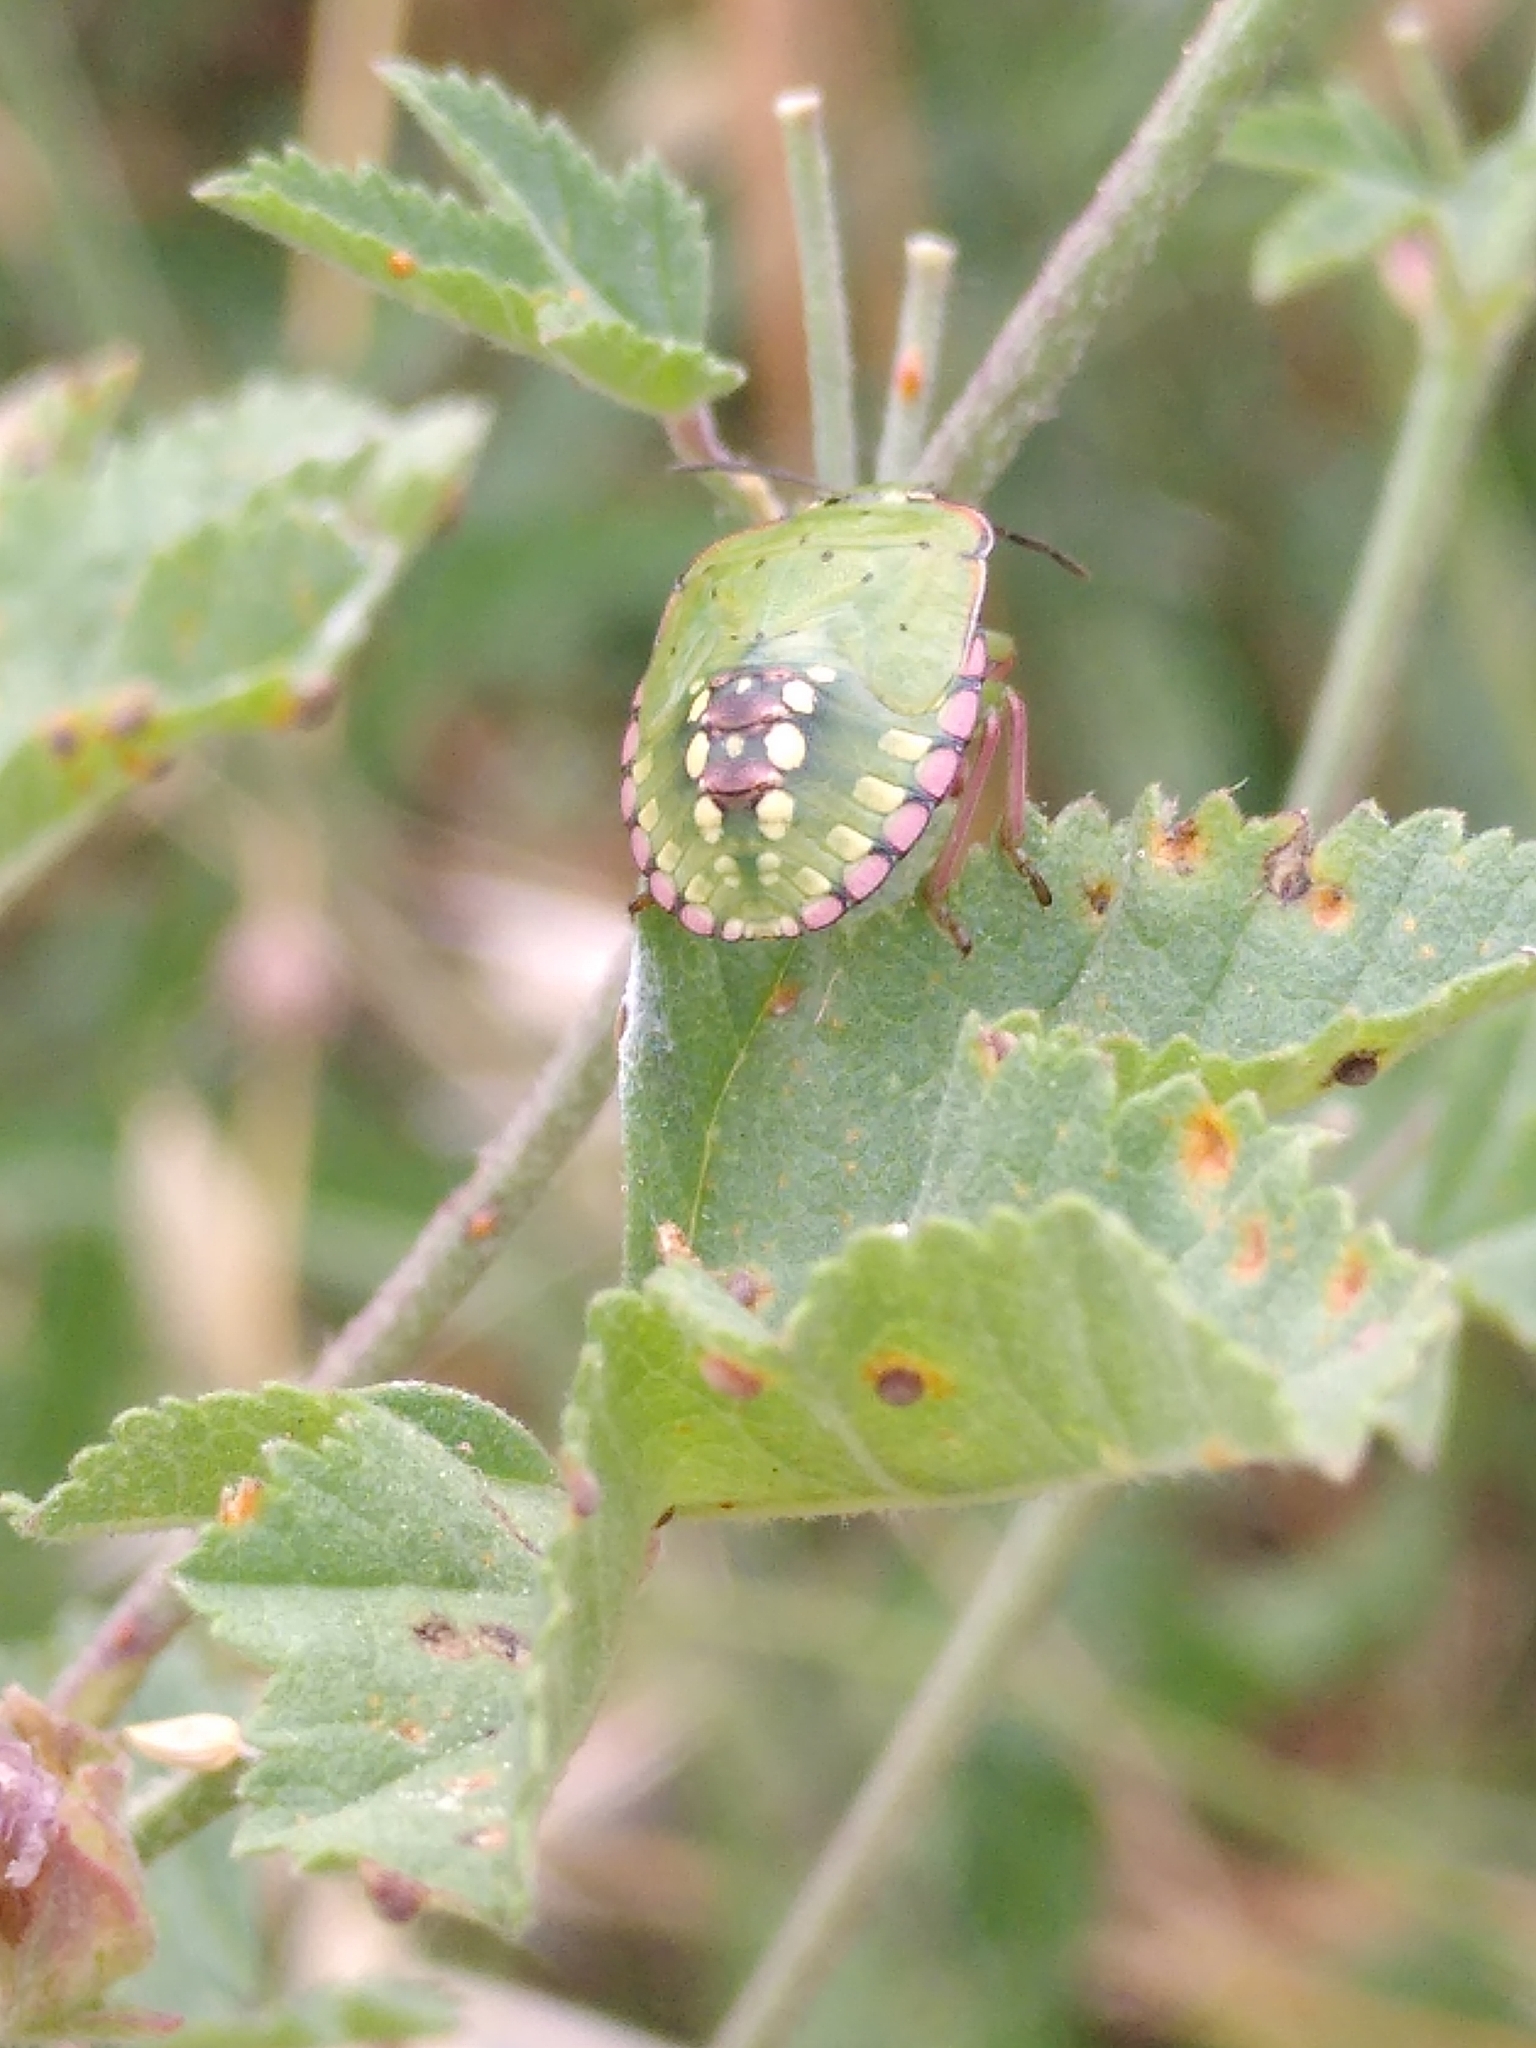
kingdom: Animalia
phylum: Arthropoda
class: Insecta
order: Hemiptera
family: Pentatomidae
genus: Nezara
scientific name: Nezara viridula
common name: Southern green stink bug
